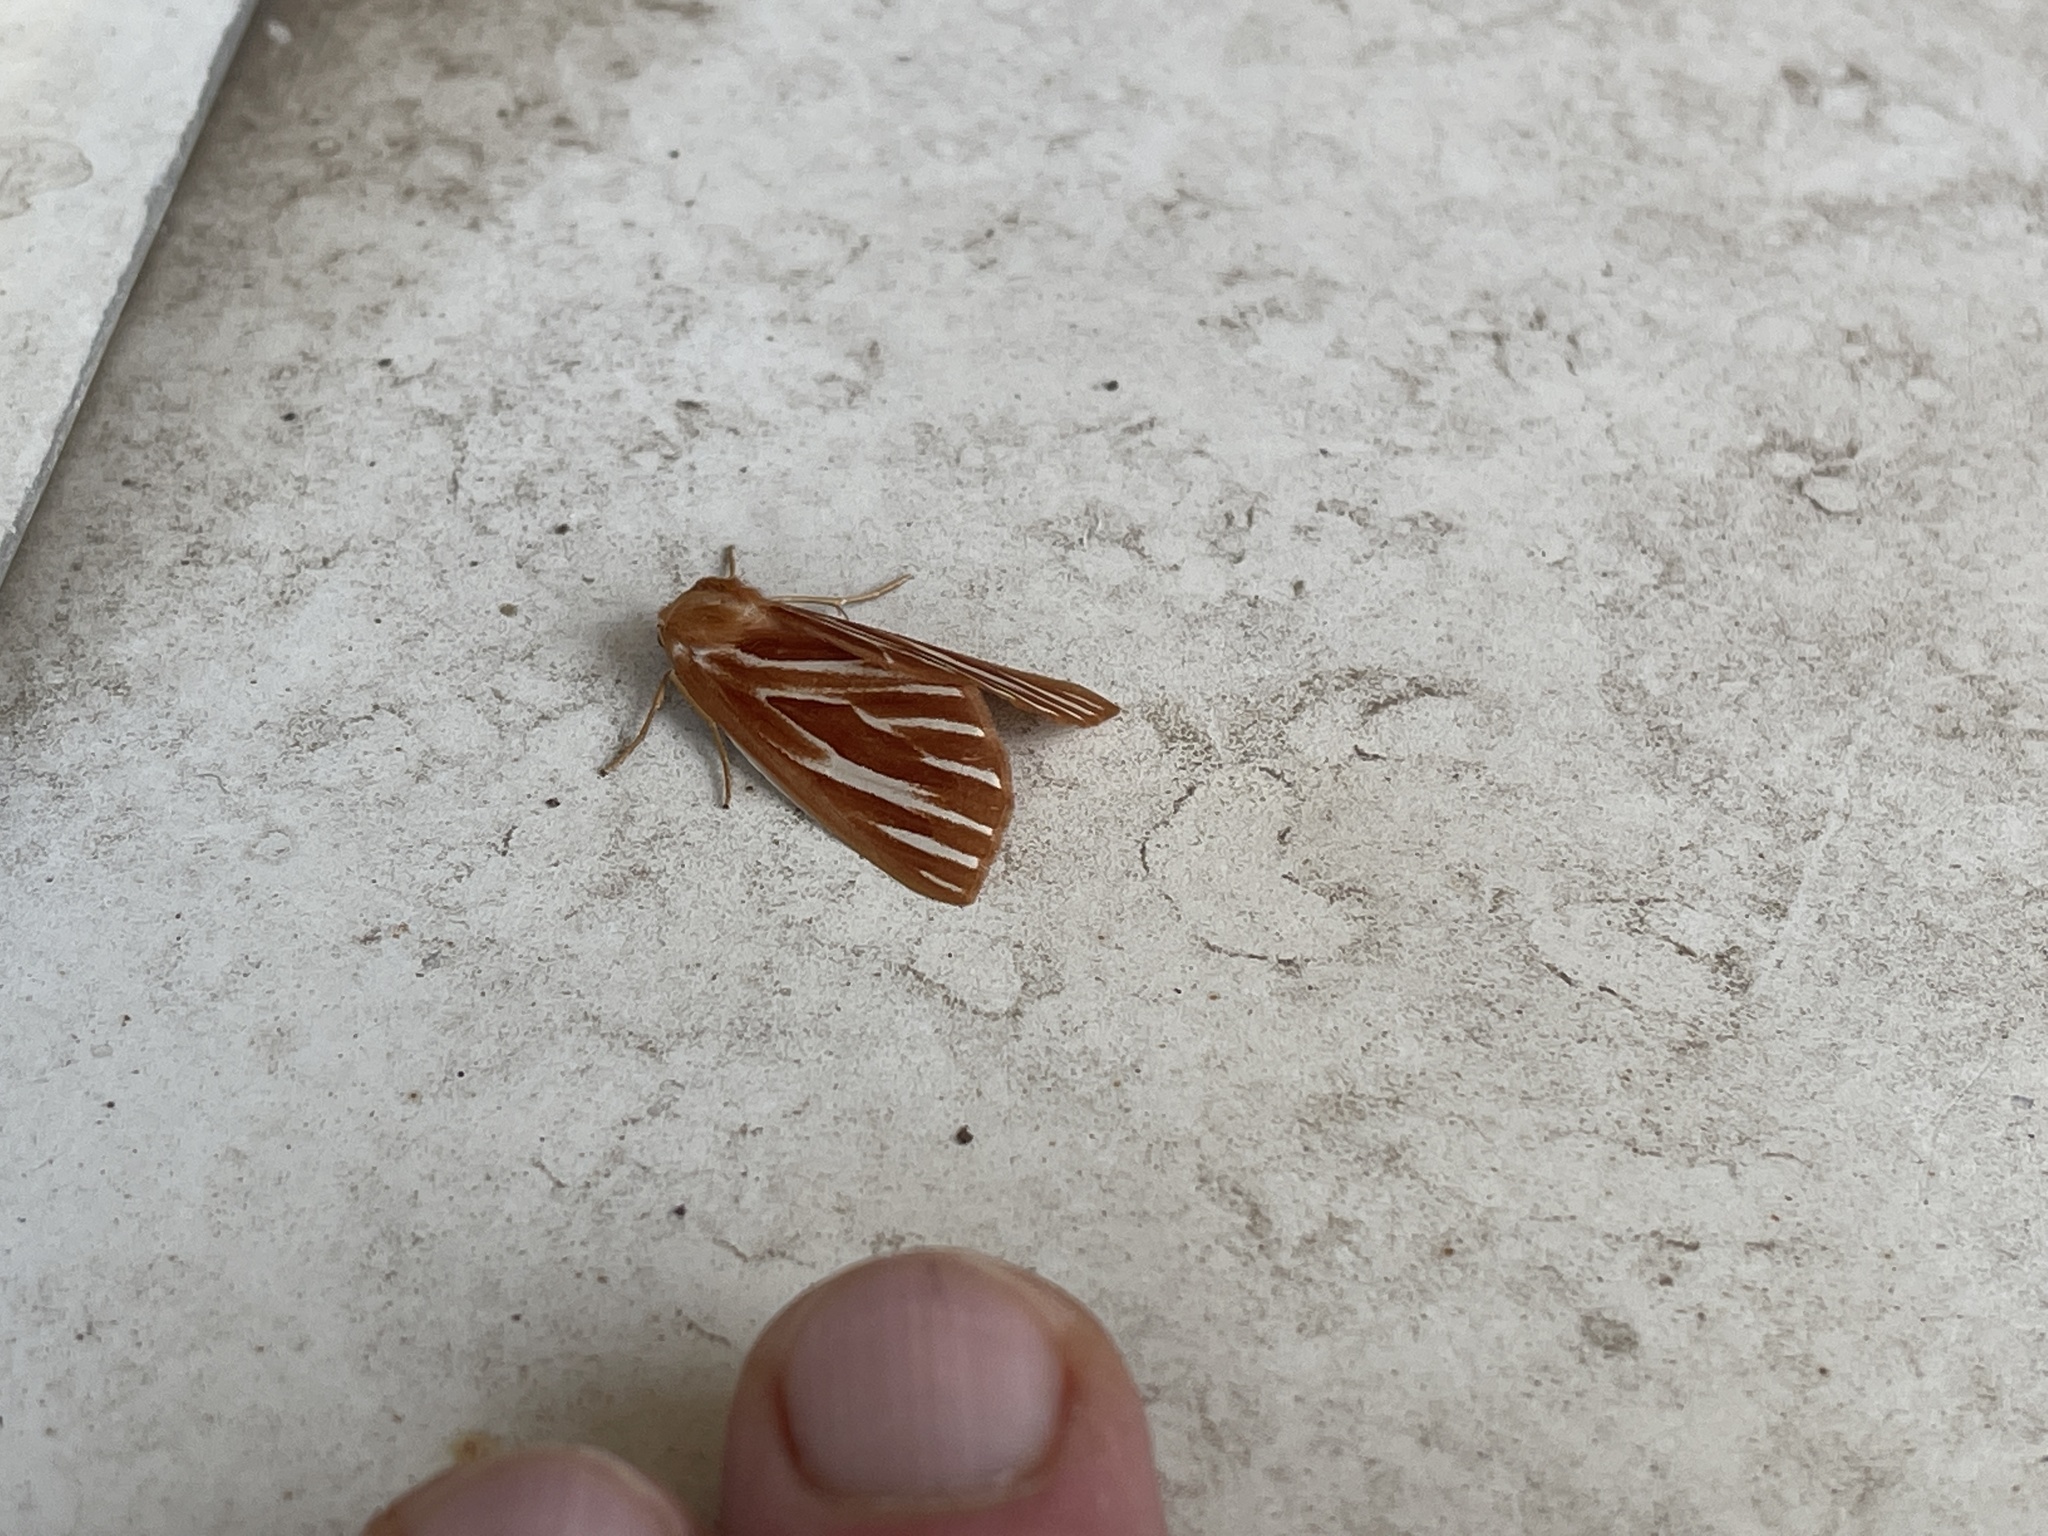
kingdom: Animalia
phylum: Arthropoda
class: Insecta
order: Lepidoptera
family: Geometridae
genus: Sabulodes
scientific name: Sabulodes niveostriata
